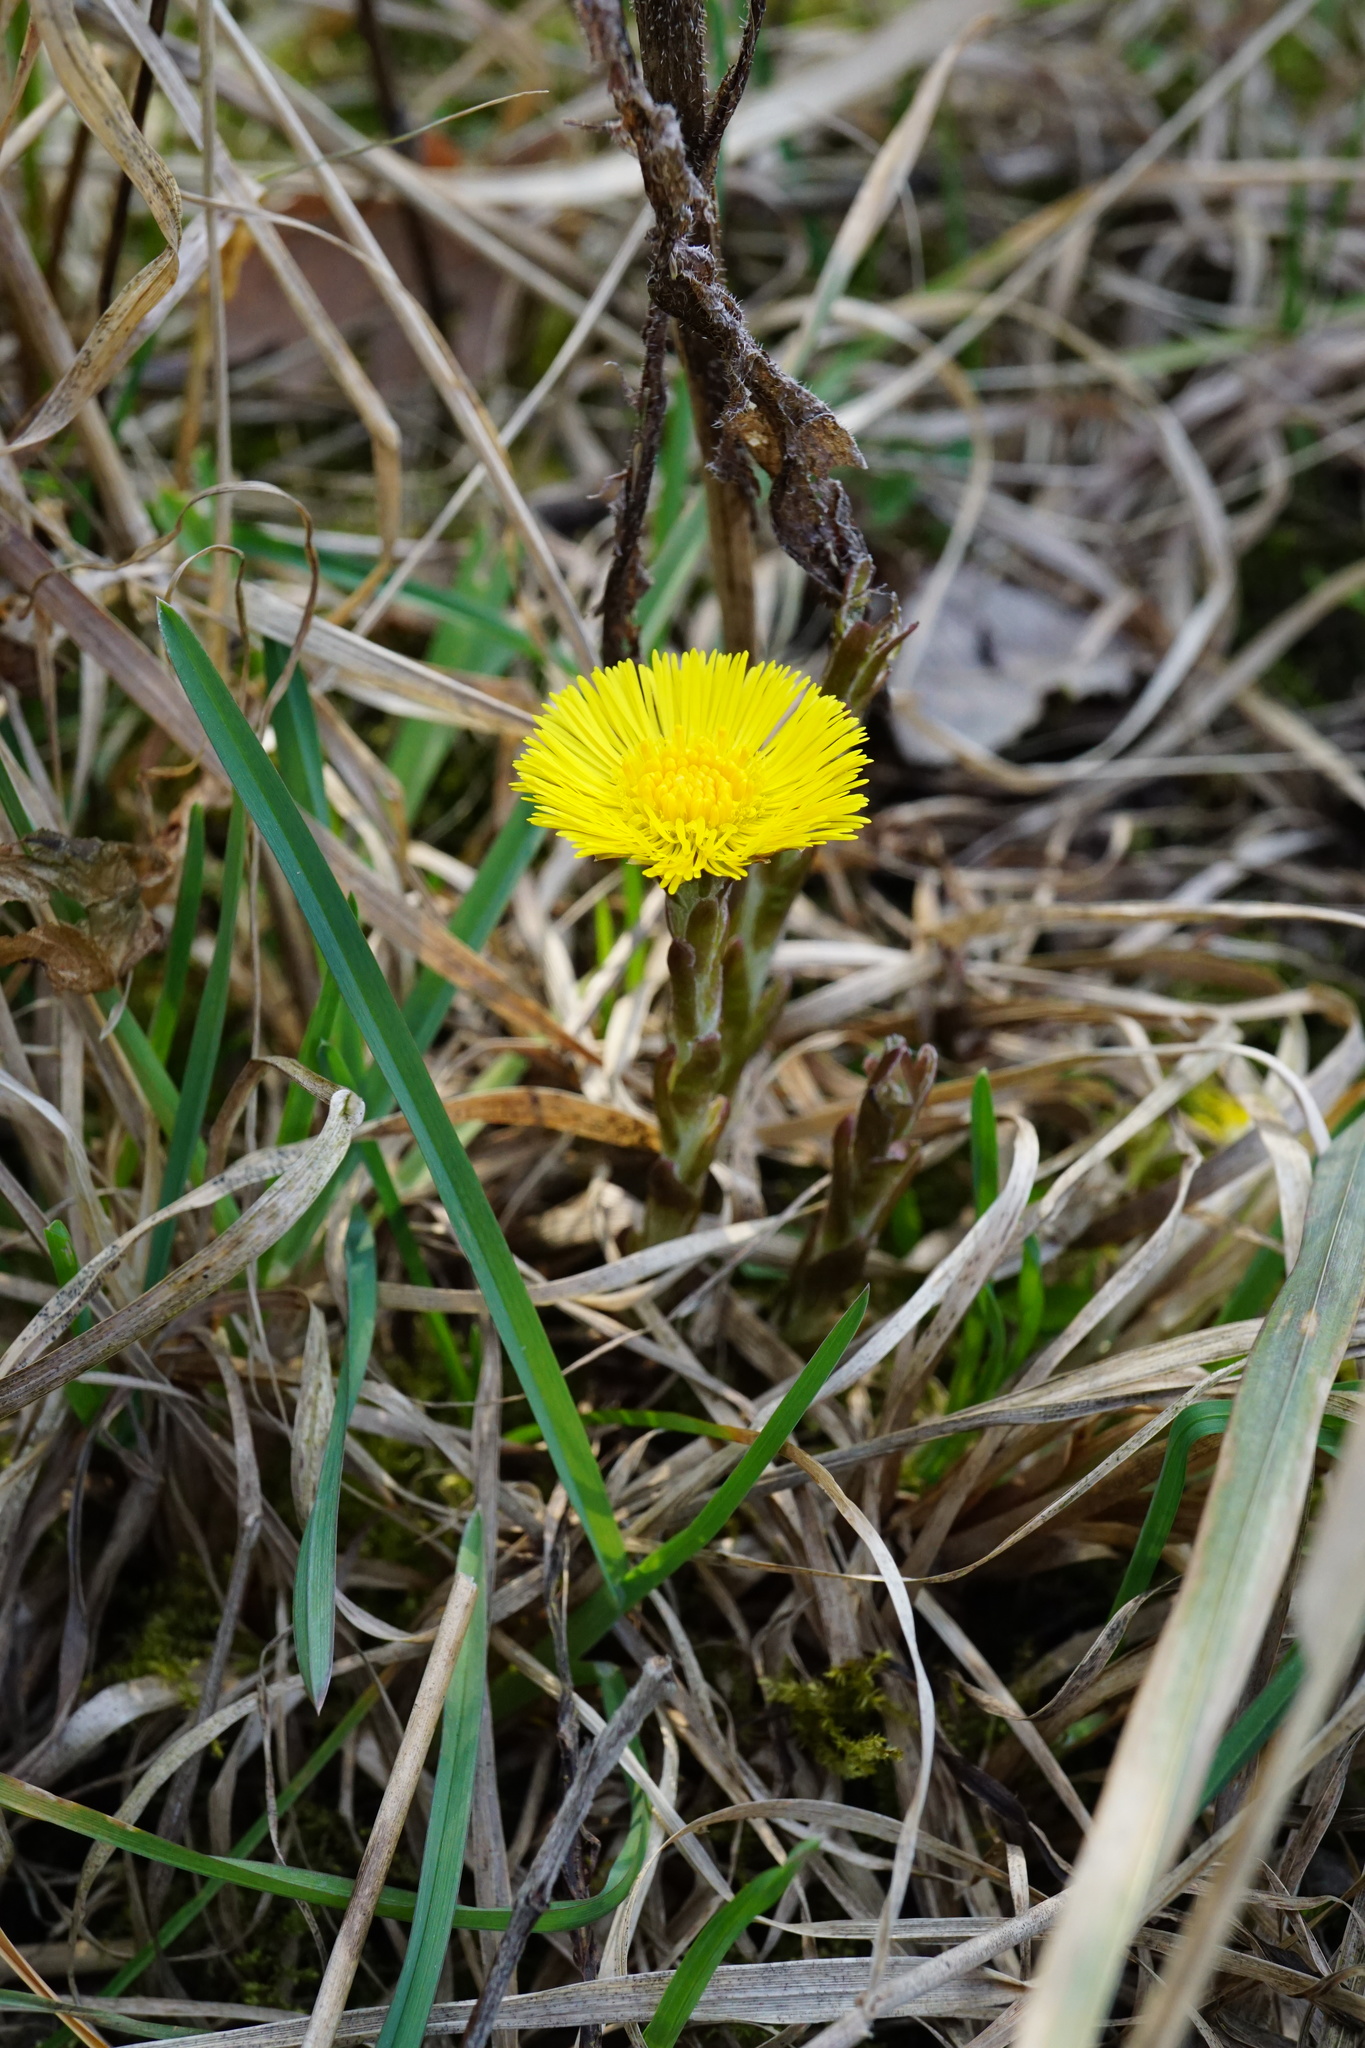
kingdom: Plantae
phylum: Tracheophyta
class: Magnoliopsida
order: Asterales
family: Asteraceae
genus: Tussilago
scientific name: Tussilago farfara
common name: Coltsfoot
